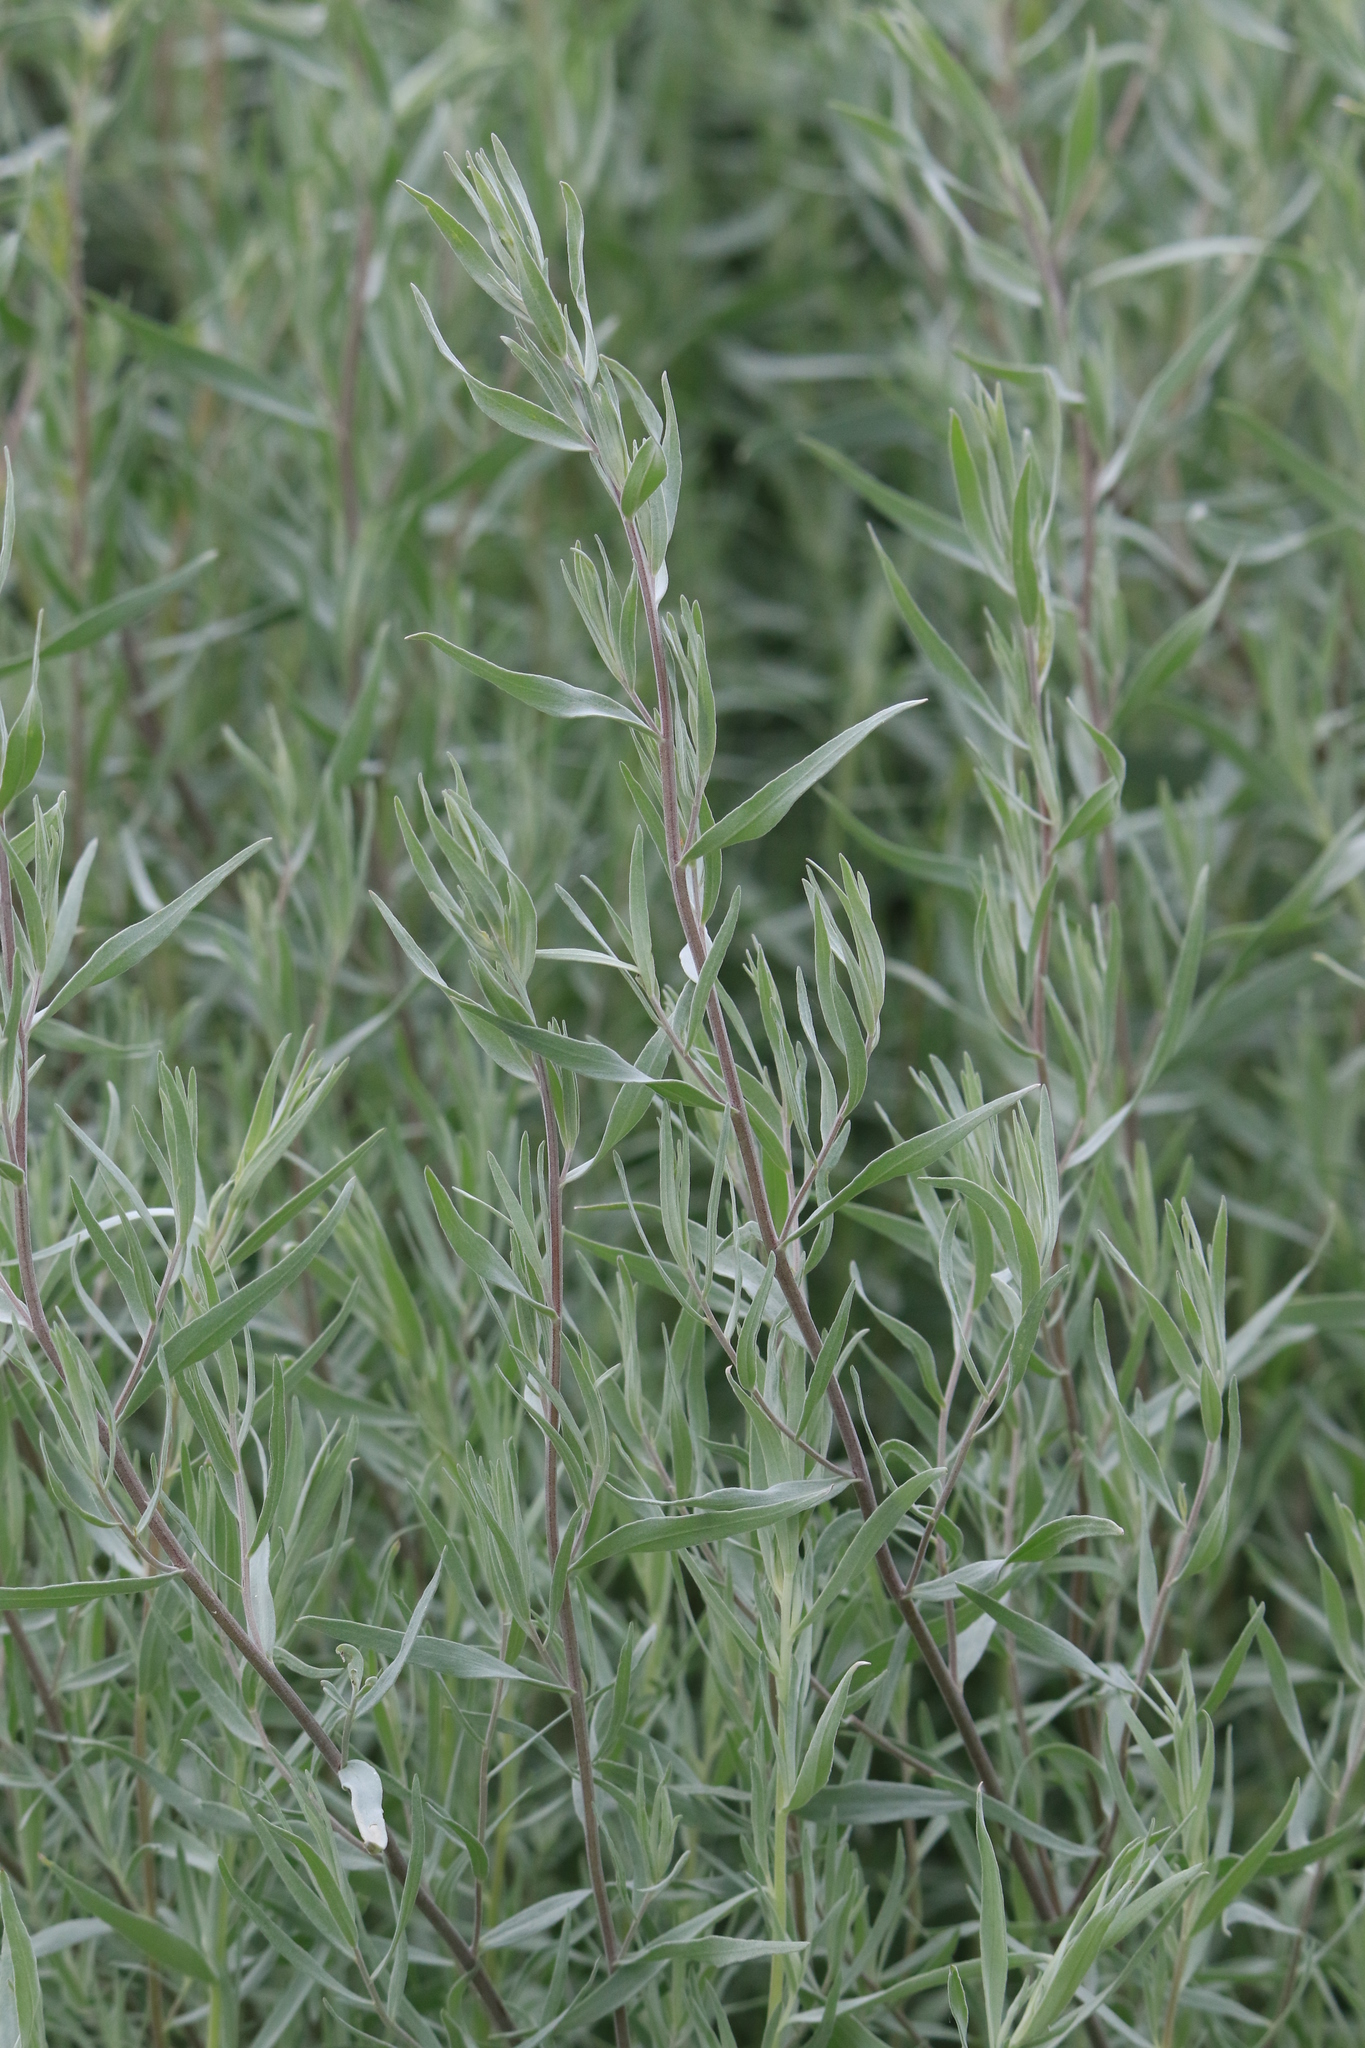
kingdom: Plantae
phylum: Tracheophyta
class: Magnoliopsida
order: Asterales
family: Asteraceae
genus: Artemisia
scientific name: Artemisia glauca
